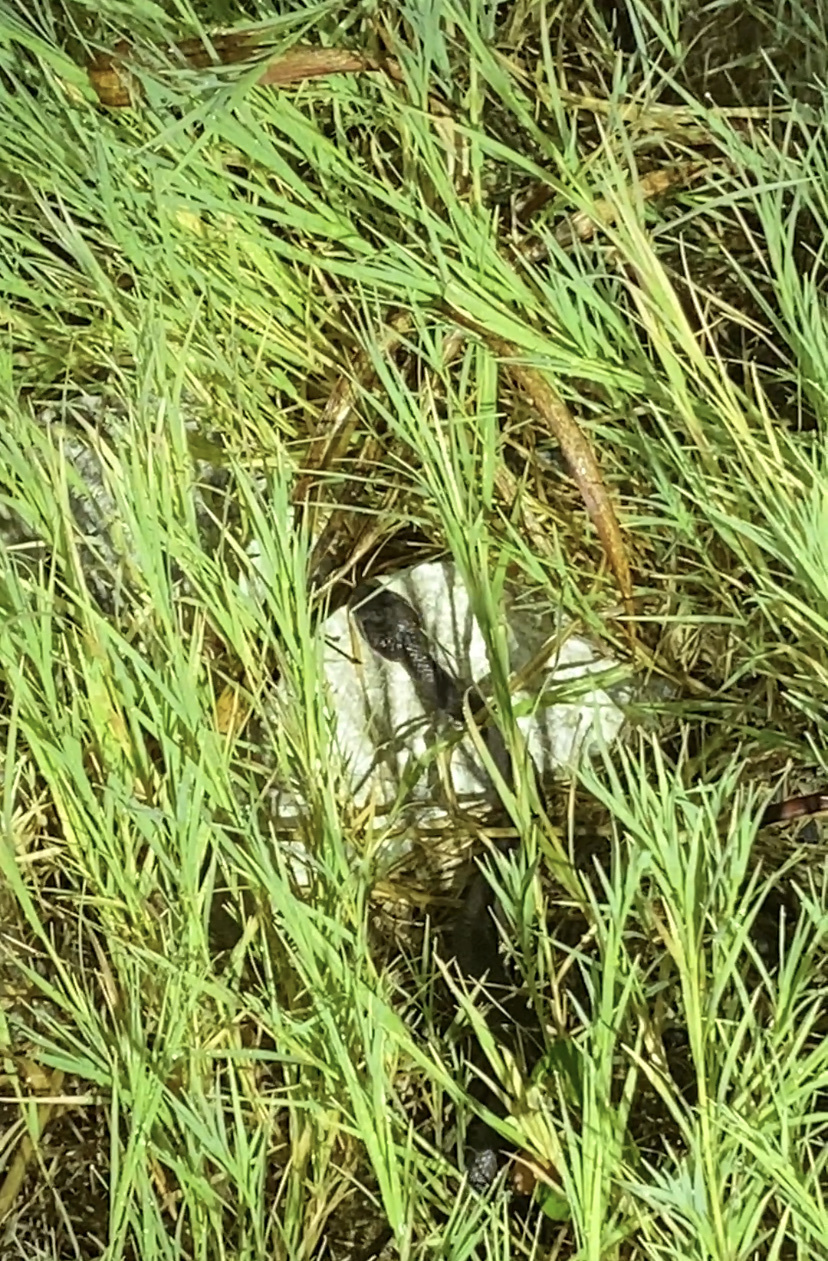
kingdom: Animalia
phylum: Chordata
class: Squamata
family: Viperidae
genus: Agkistrodon
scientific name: Agkistrodon piscivorus
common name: Cottonmouth
